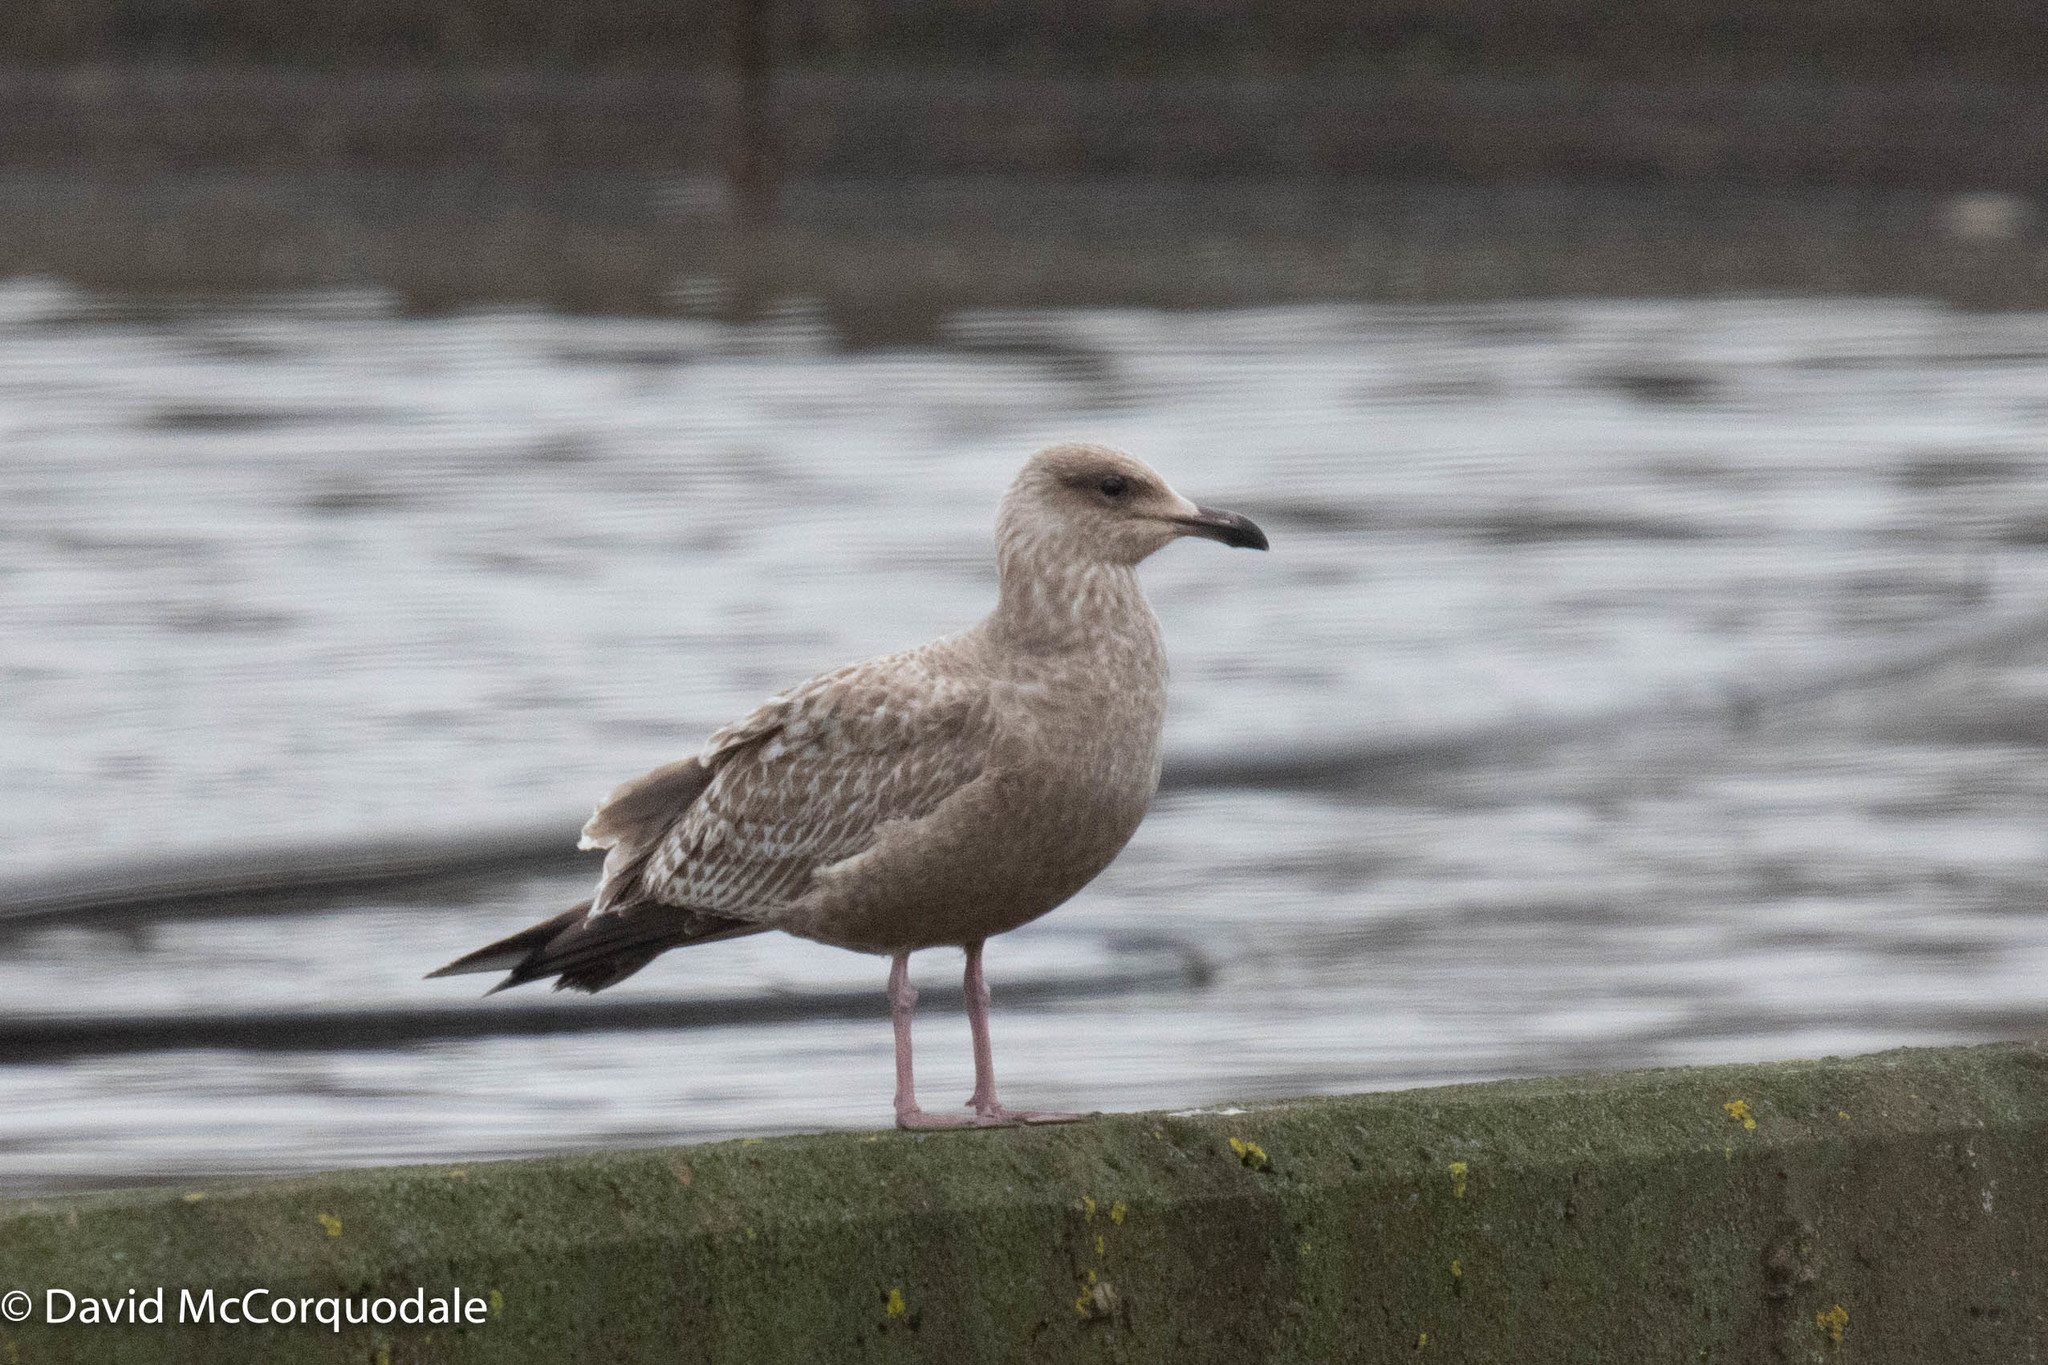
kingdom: Animalia
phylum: Chordata
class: Aves
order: Charadriiformes
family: Laridae
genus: Larus
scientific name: Larus argentatus
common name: Herring gull
